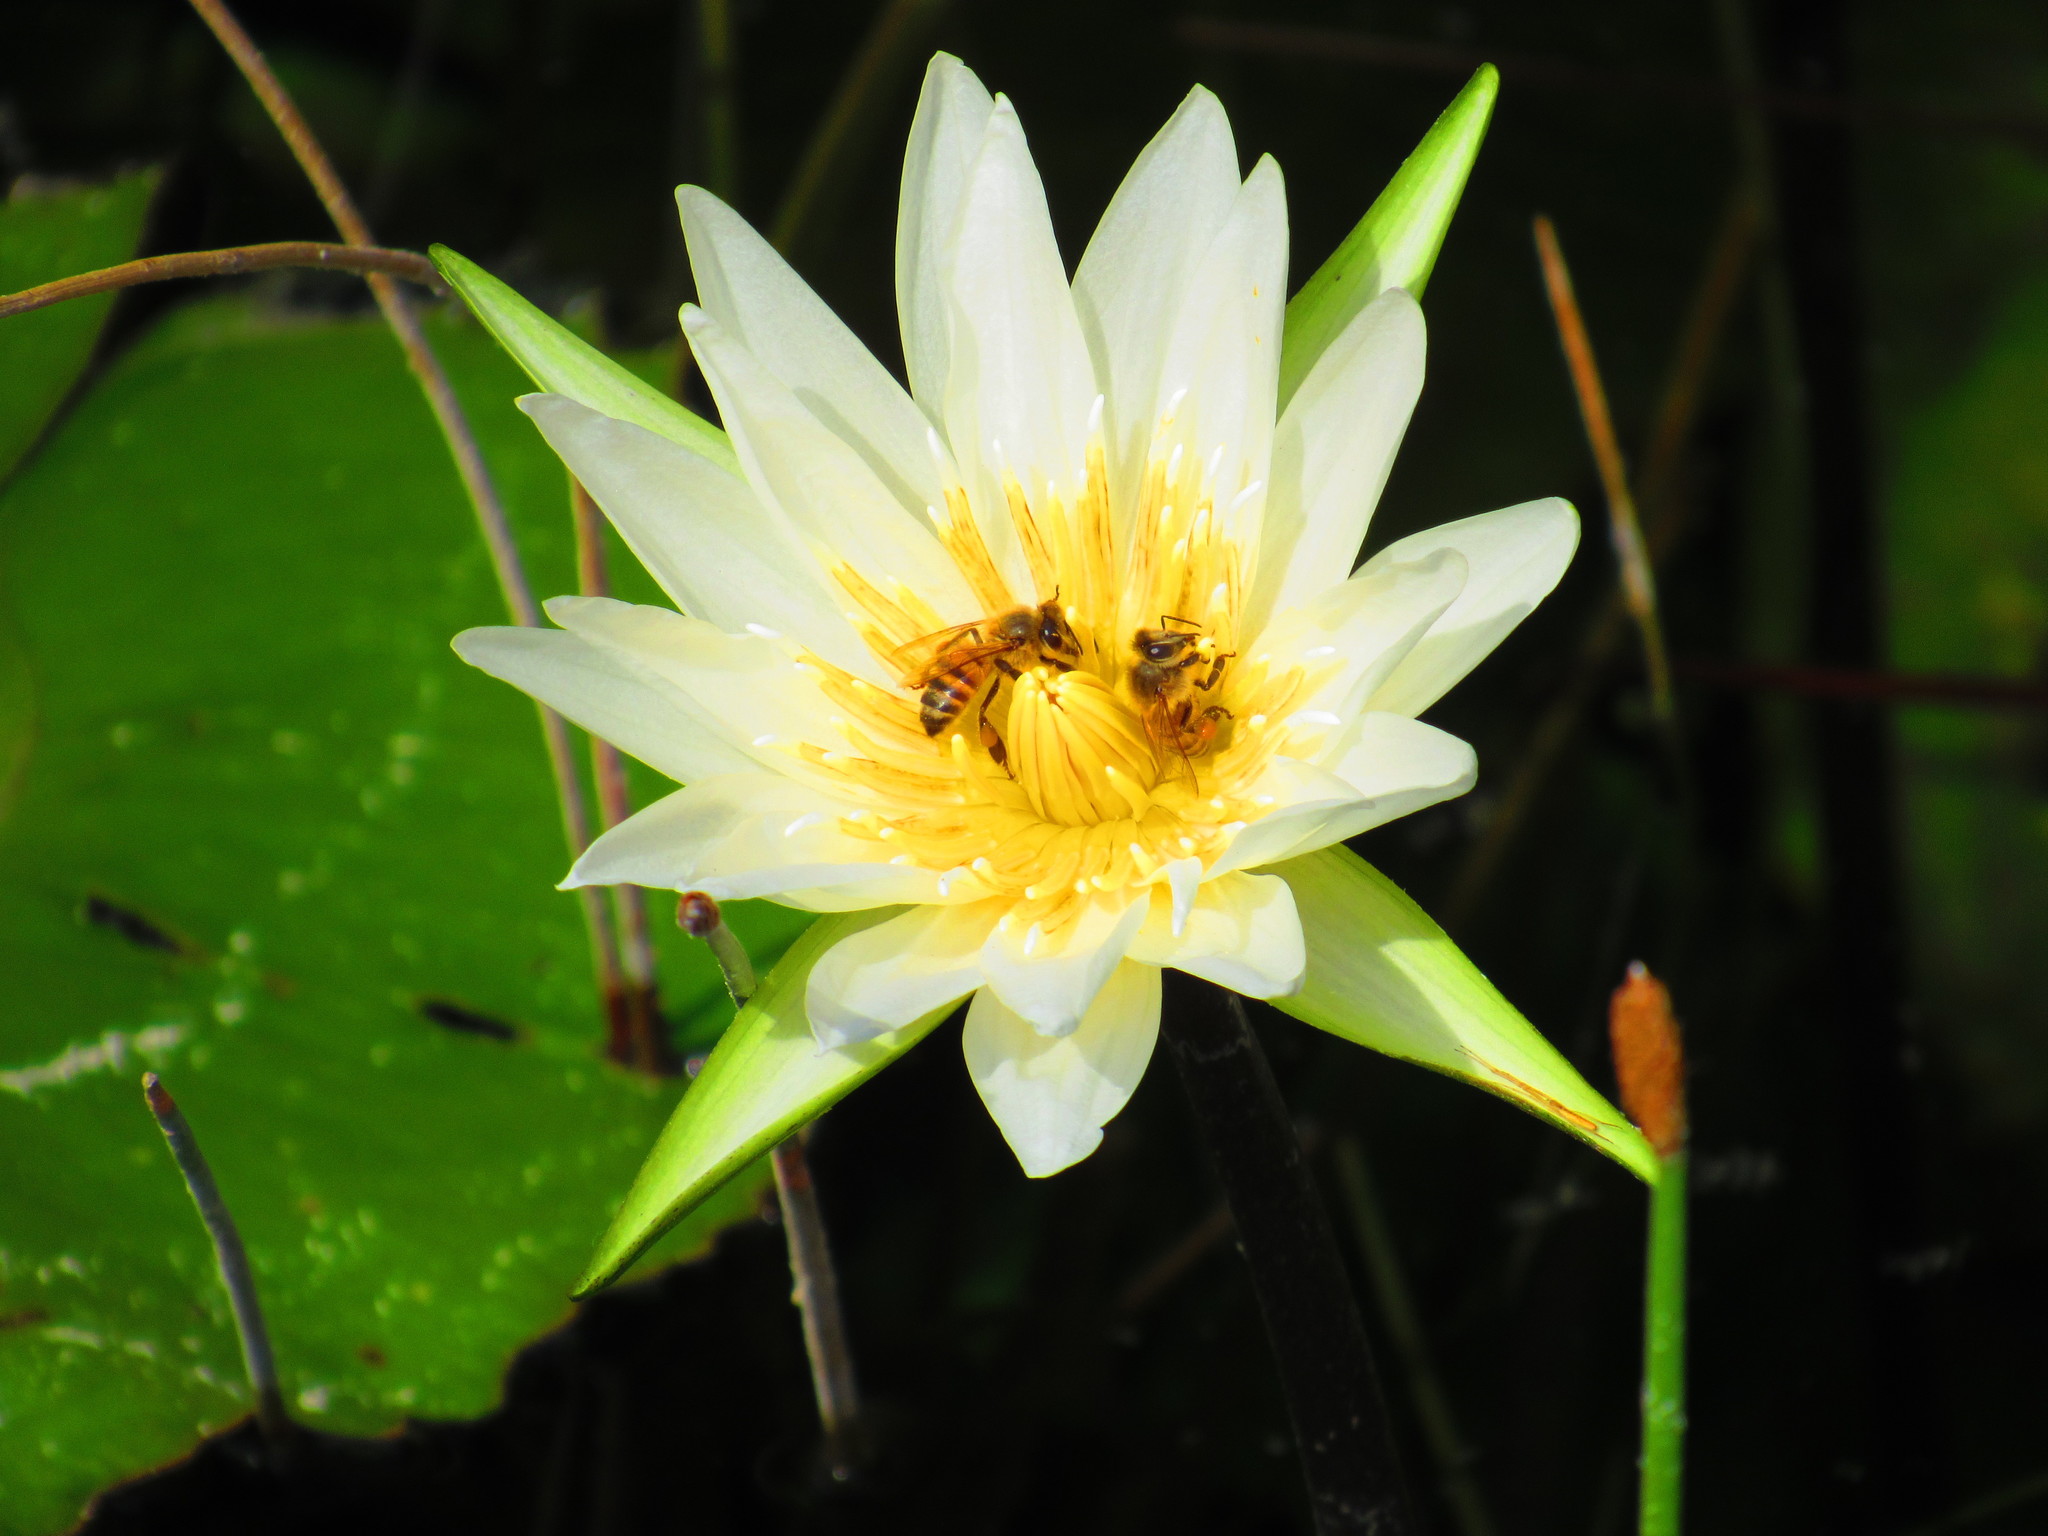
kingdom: Animalia
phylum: Arthropoda
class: Insecta
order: Hymenoptera
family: Apidae
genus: Apis
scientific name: Apis mellifera
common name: Honey bee
